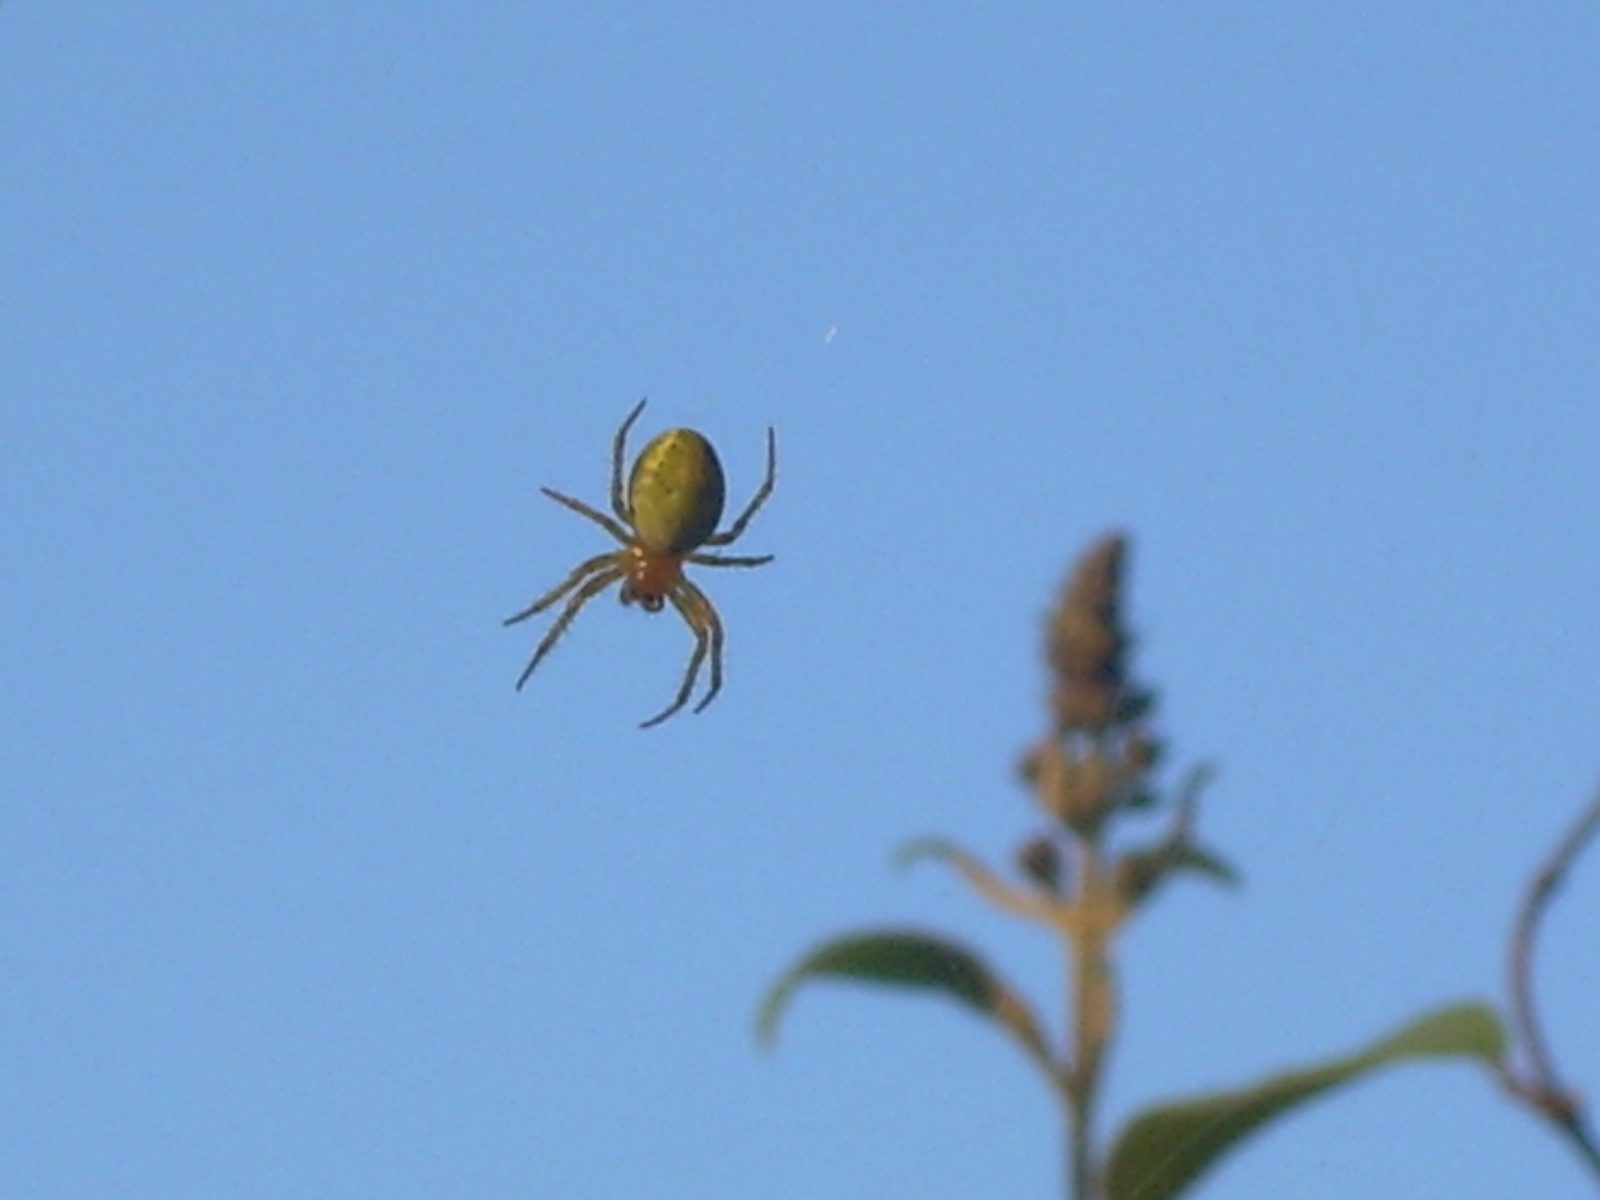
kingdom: Animalia
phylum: Arthropoda
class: Arachnida
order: Araneae
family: Araneidae
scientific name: Araneidae
